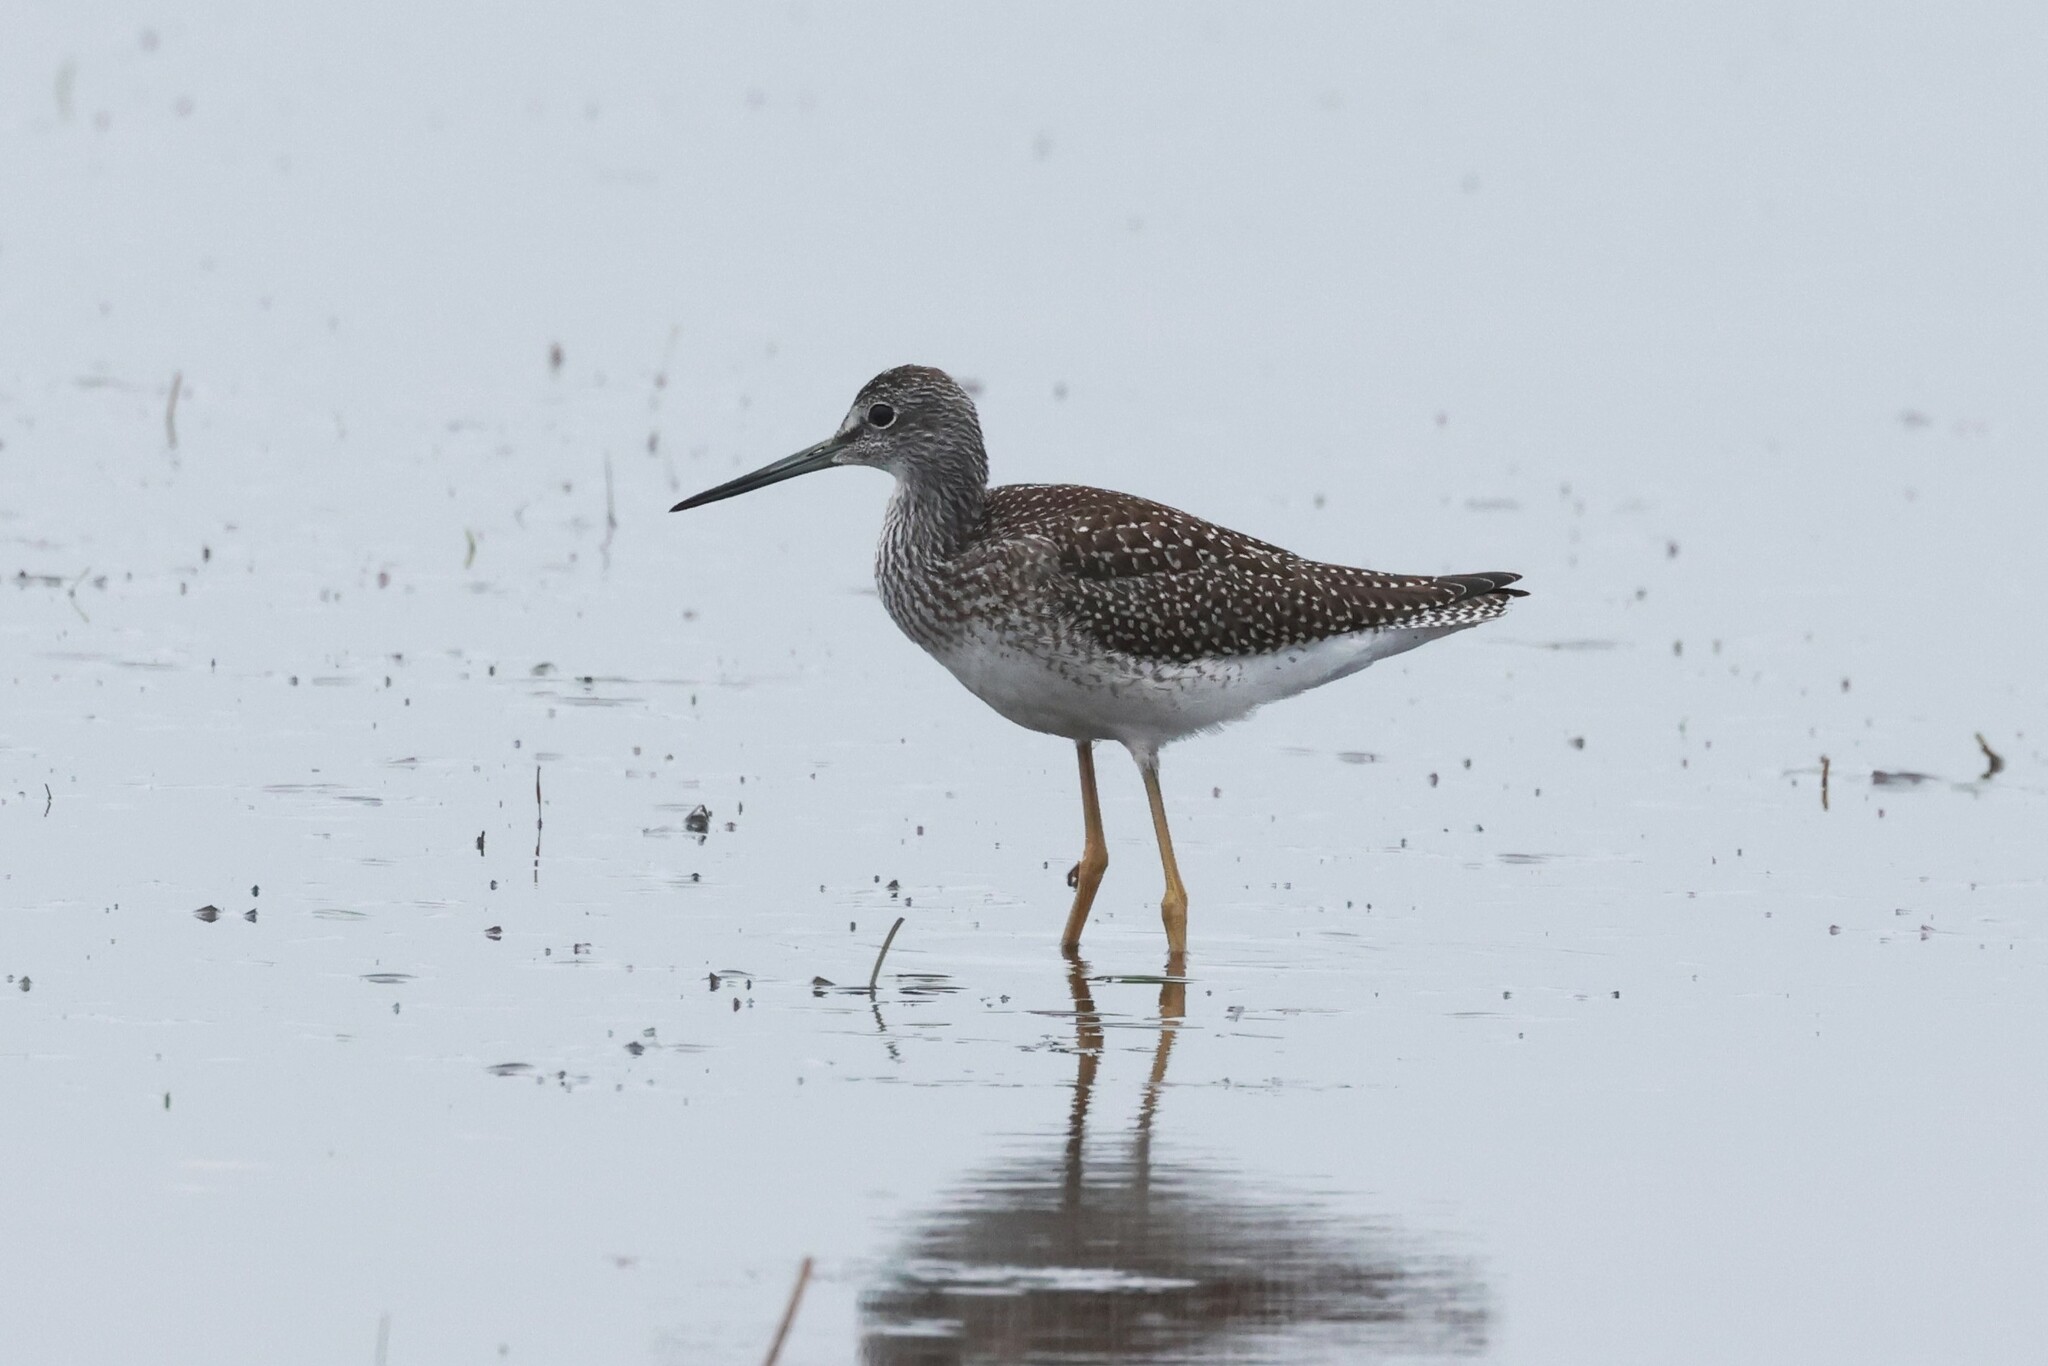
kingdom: Animalia
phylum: Chordata
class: Aves
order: Charadriiformes
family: Scolopacidae
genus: Tringa
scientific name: Tringa melanoleuca
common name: Greater yellowlegs
